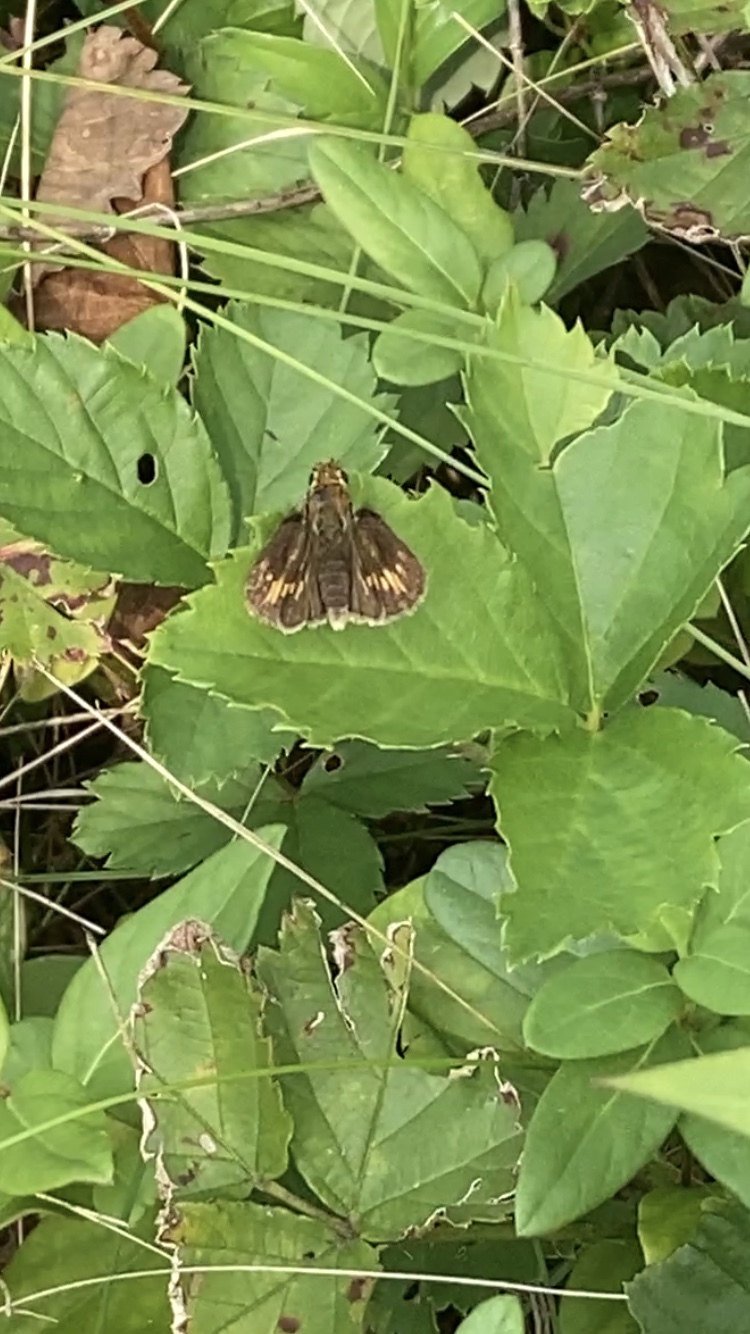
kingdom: Animalia
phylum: Arthropoda
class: Insecta
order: Lepidoptera
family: Hesperiidae
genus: Polites
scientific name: Polites coras
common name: Peck's skipper
